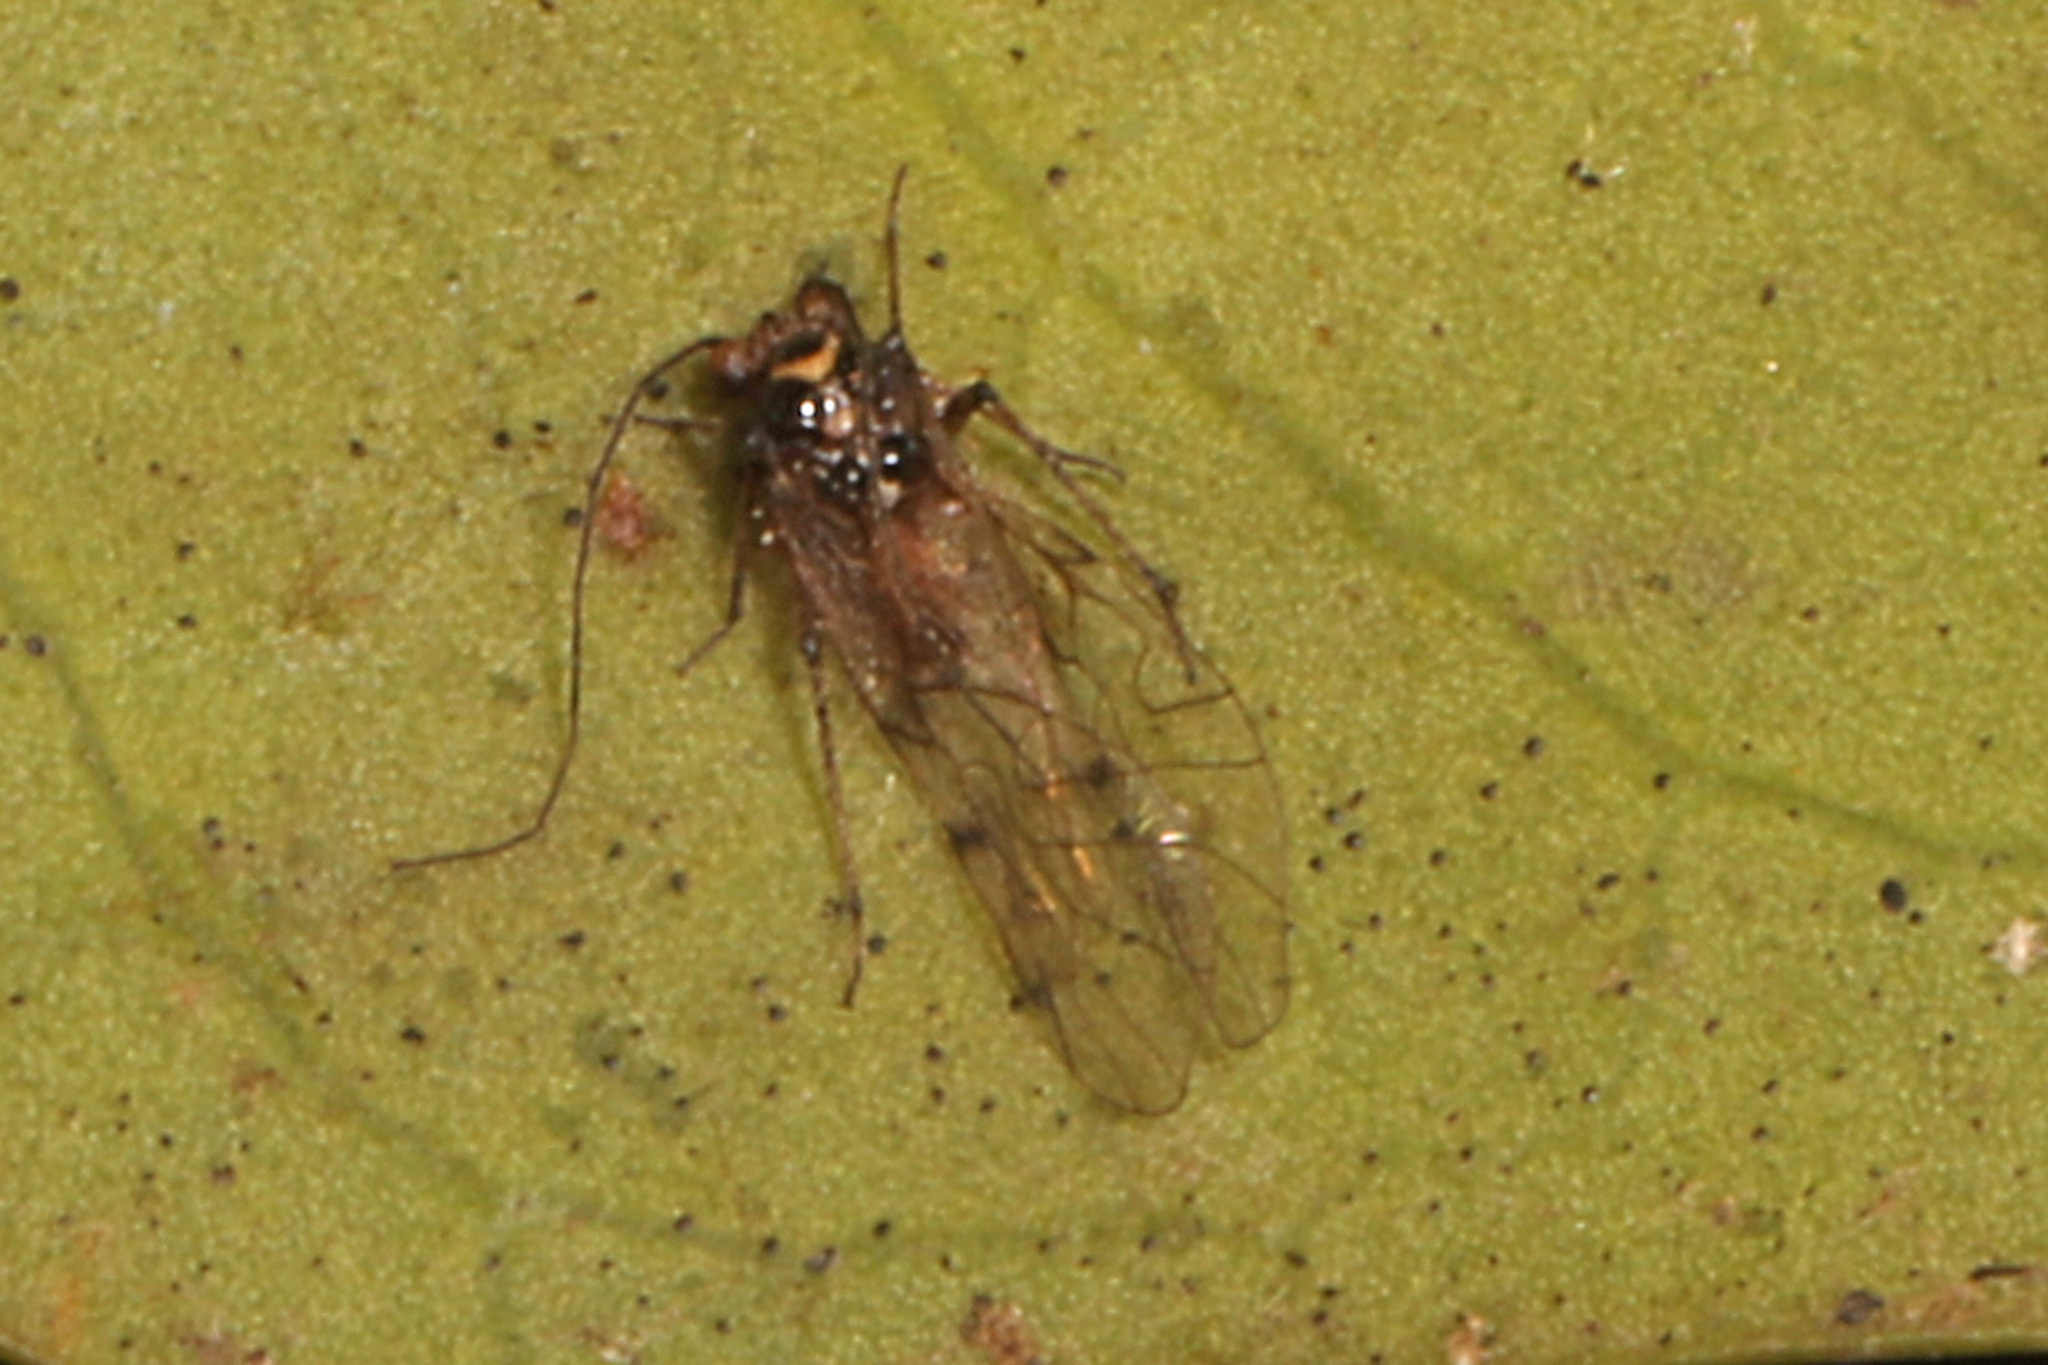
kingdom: Animalia
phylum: Arthropoda
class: Insecta
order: Psocodea
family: Dasydemellidae
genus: Teliapsocus
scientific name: Teliapsocus conterminus
